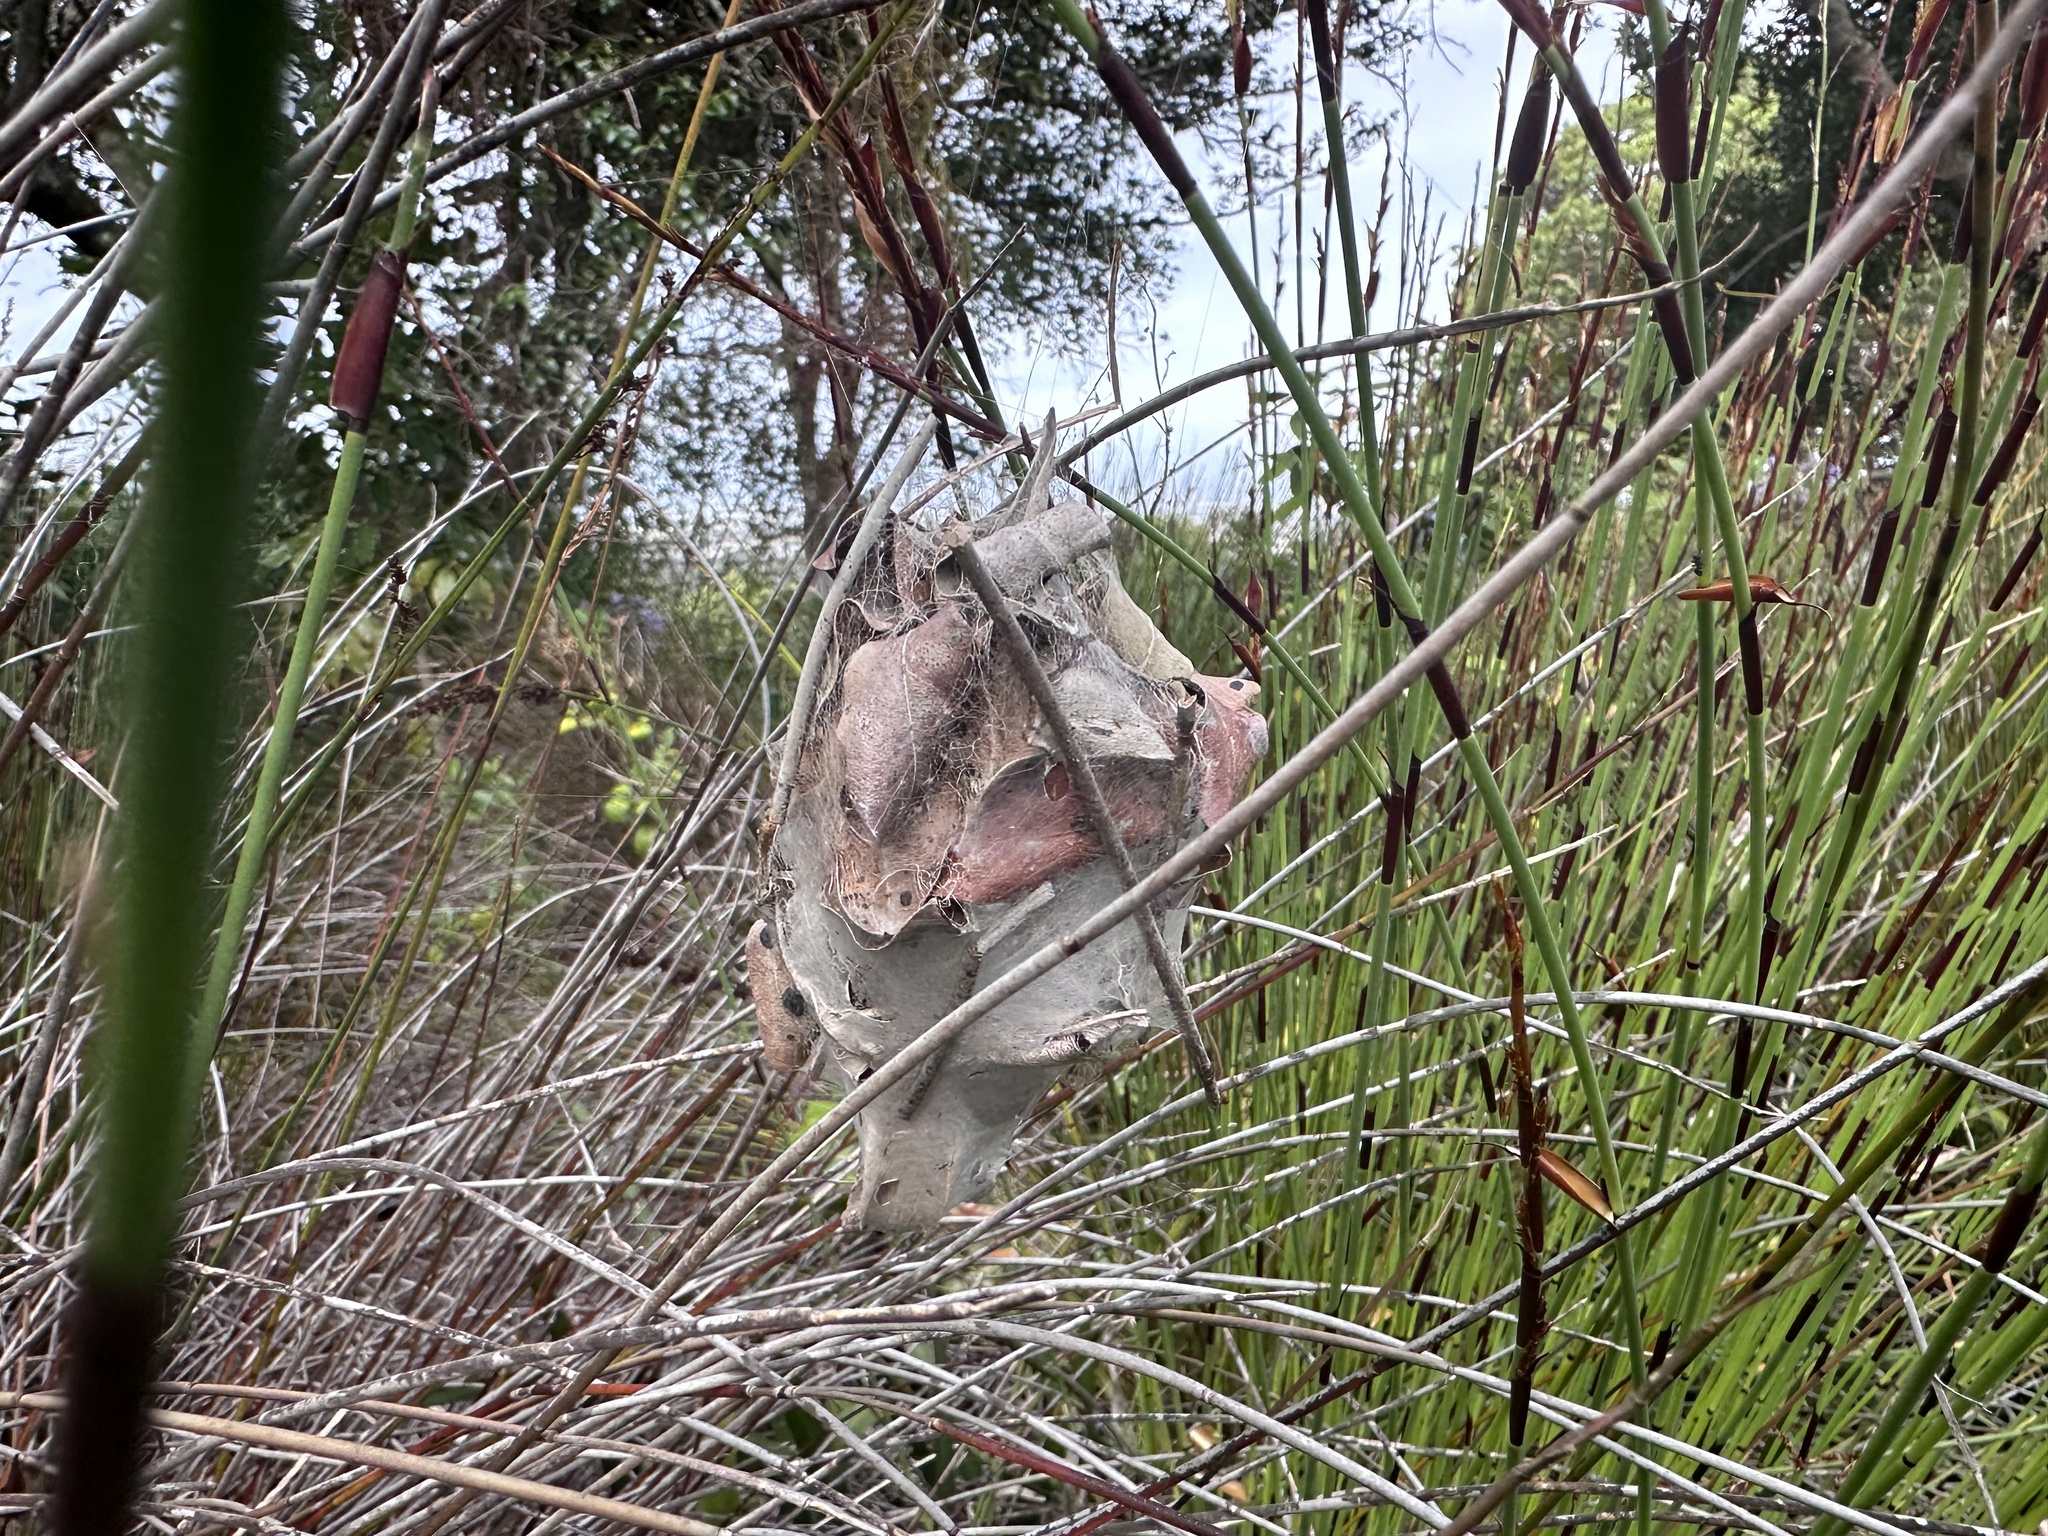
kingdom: Animalia
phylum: Arthropoda
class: Arachnida
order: Araneae
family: Sparassidae
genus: Palystes
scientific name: Palystes castaneus
